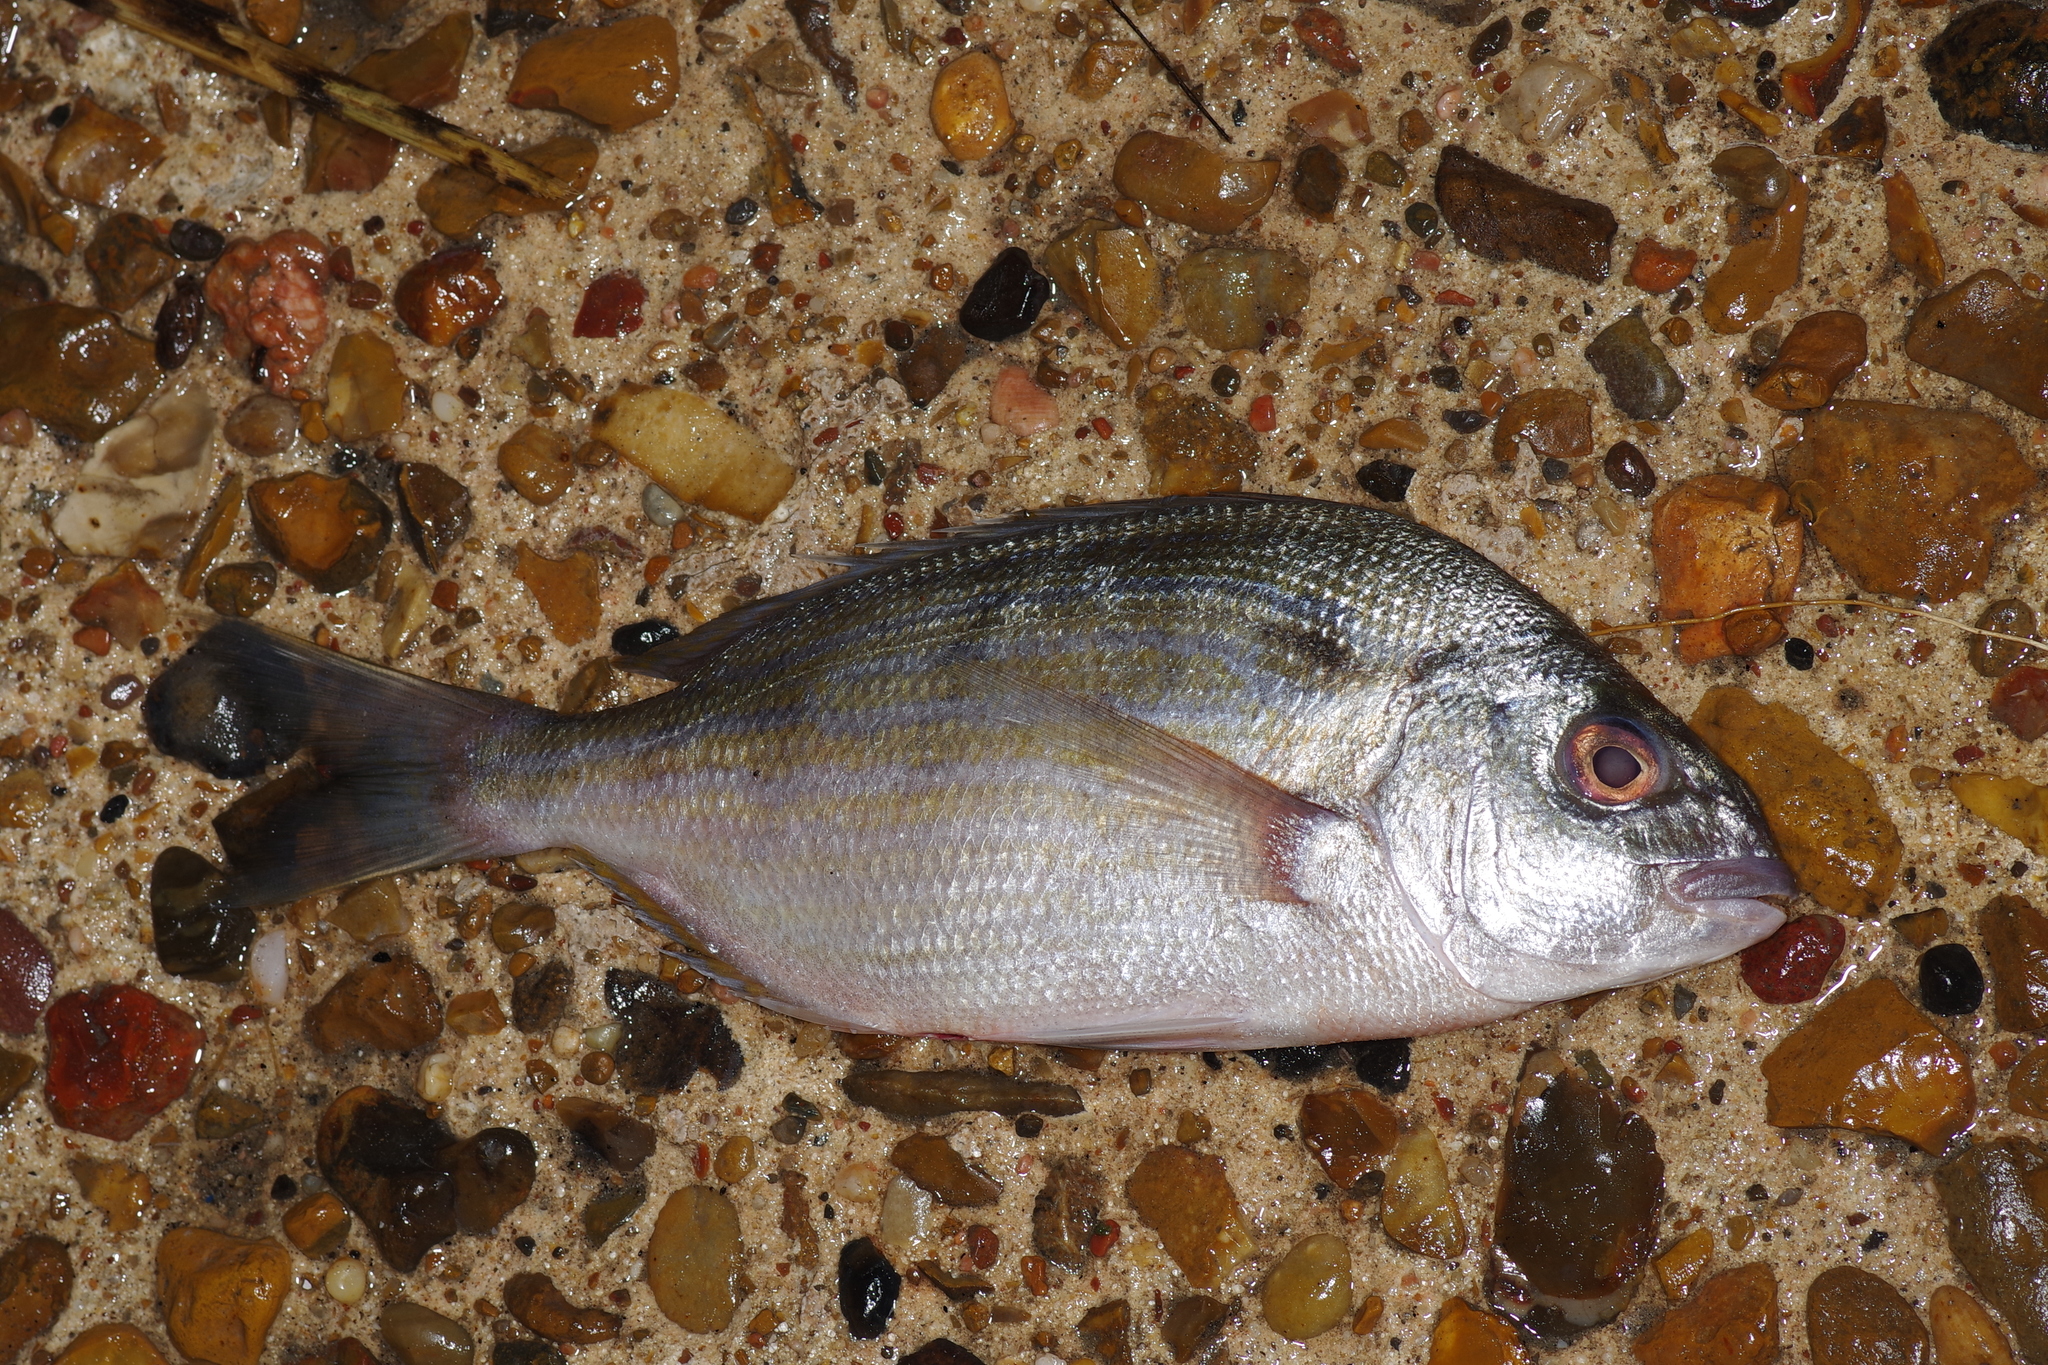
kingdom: Animalia
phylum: Chordata
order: Perciformes
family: Sparidae
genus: Lagodon
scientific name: Lagodon rhomboides
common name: Pinfish
